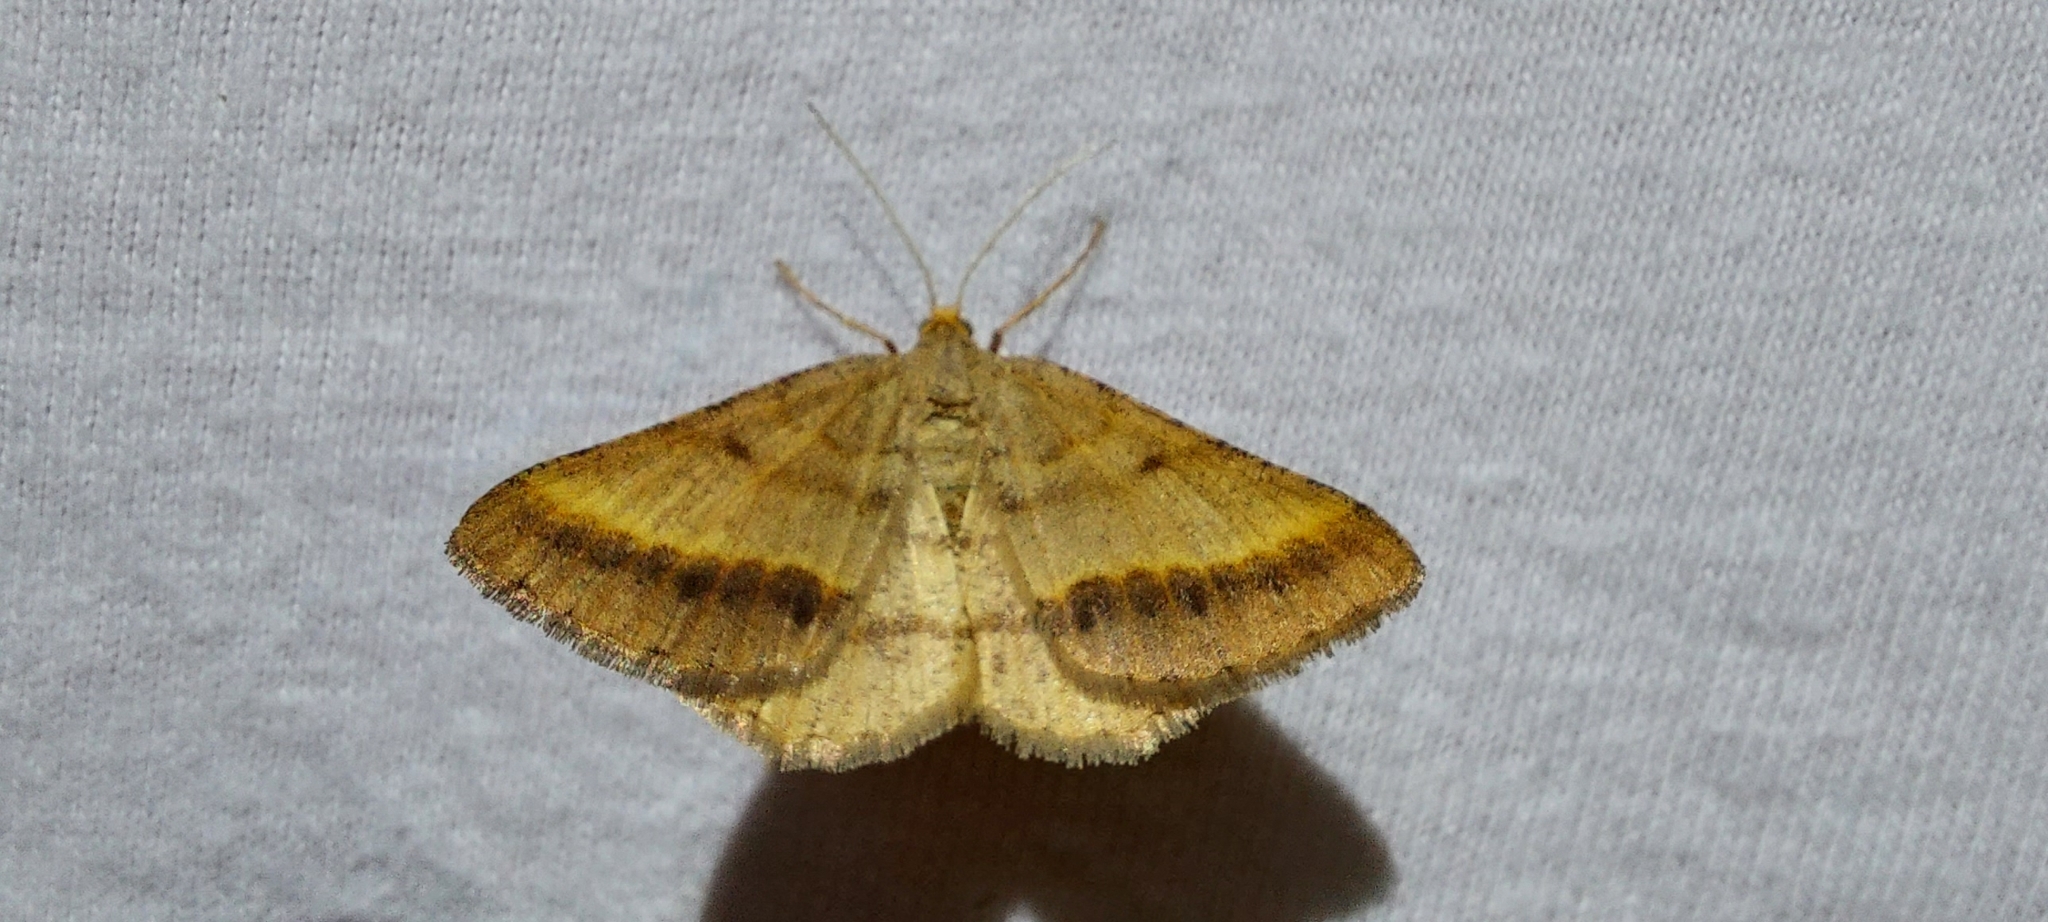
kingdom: Animalia
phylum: Arthropoda
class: Insecta
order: Lepidoptera
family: Geometridae
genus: Tephrina
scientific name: Tephrina arenacearia
